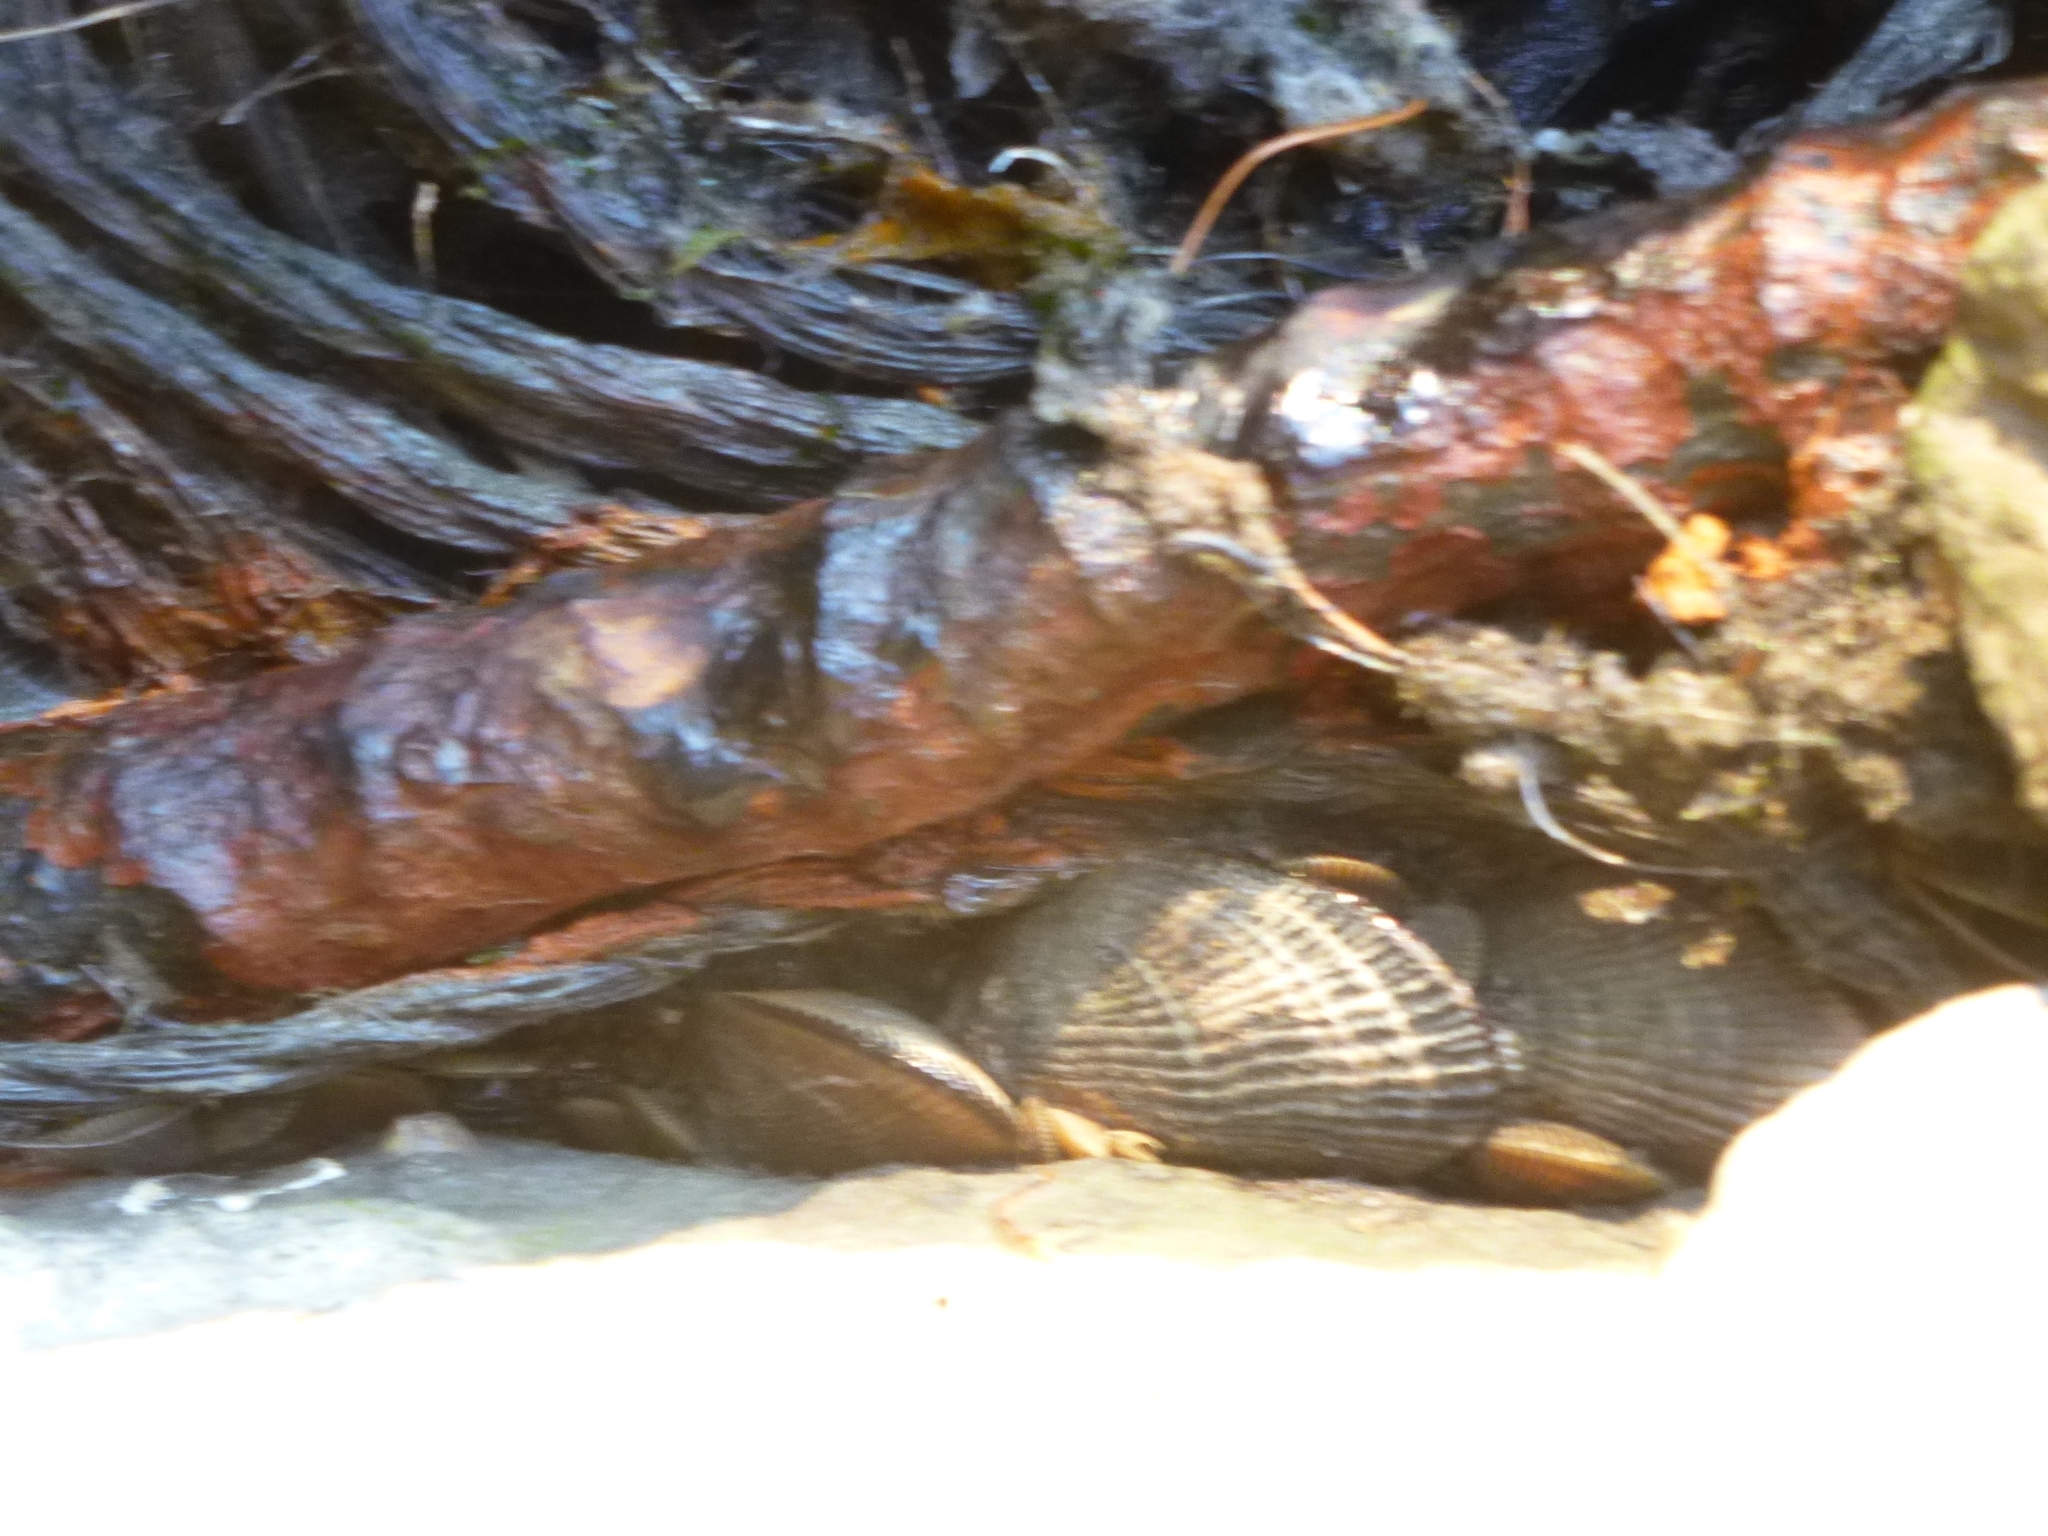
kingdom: Animalia
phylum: Mollusca
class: Bivalvia
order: Mytilida
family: Mytilidae
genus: Geukensia
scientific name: Geukensia demissa
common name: Ribbed mussel
